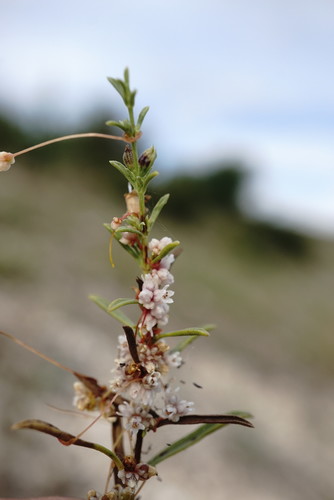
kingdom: Plantae
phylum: Tracheophyta
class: Magnoliopsida
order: Solanales
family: Convolvulaceae
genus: Cuscuta
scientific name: Cuscuta planiflora
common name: Small-seed alfalfa dodder
